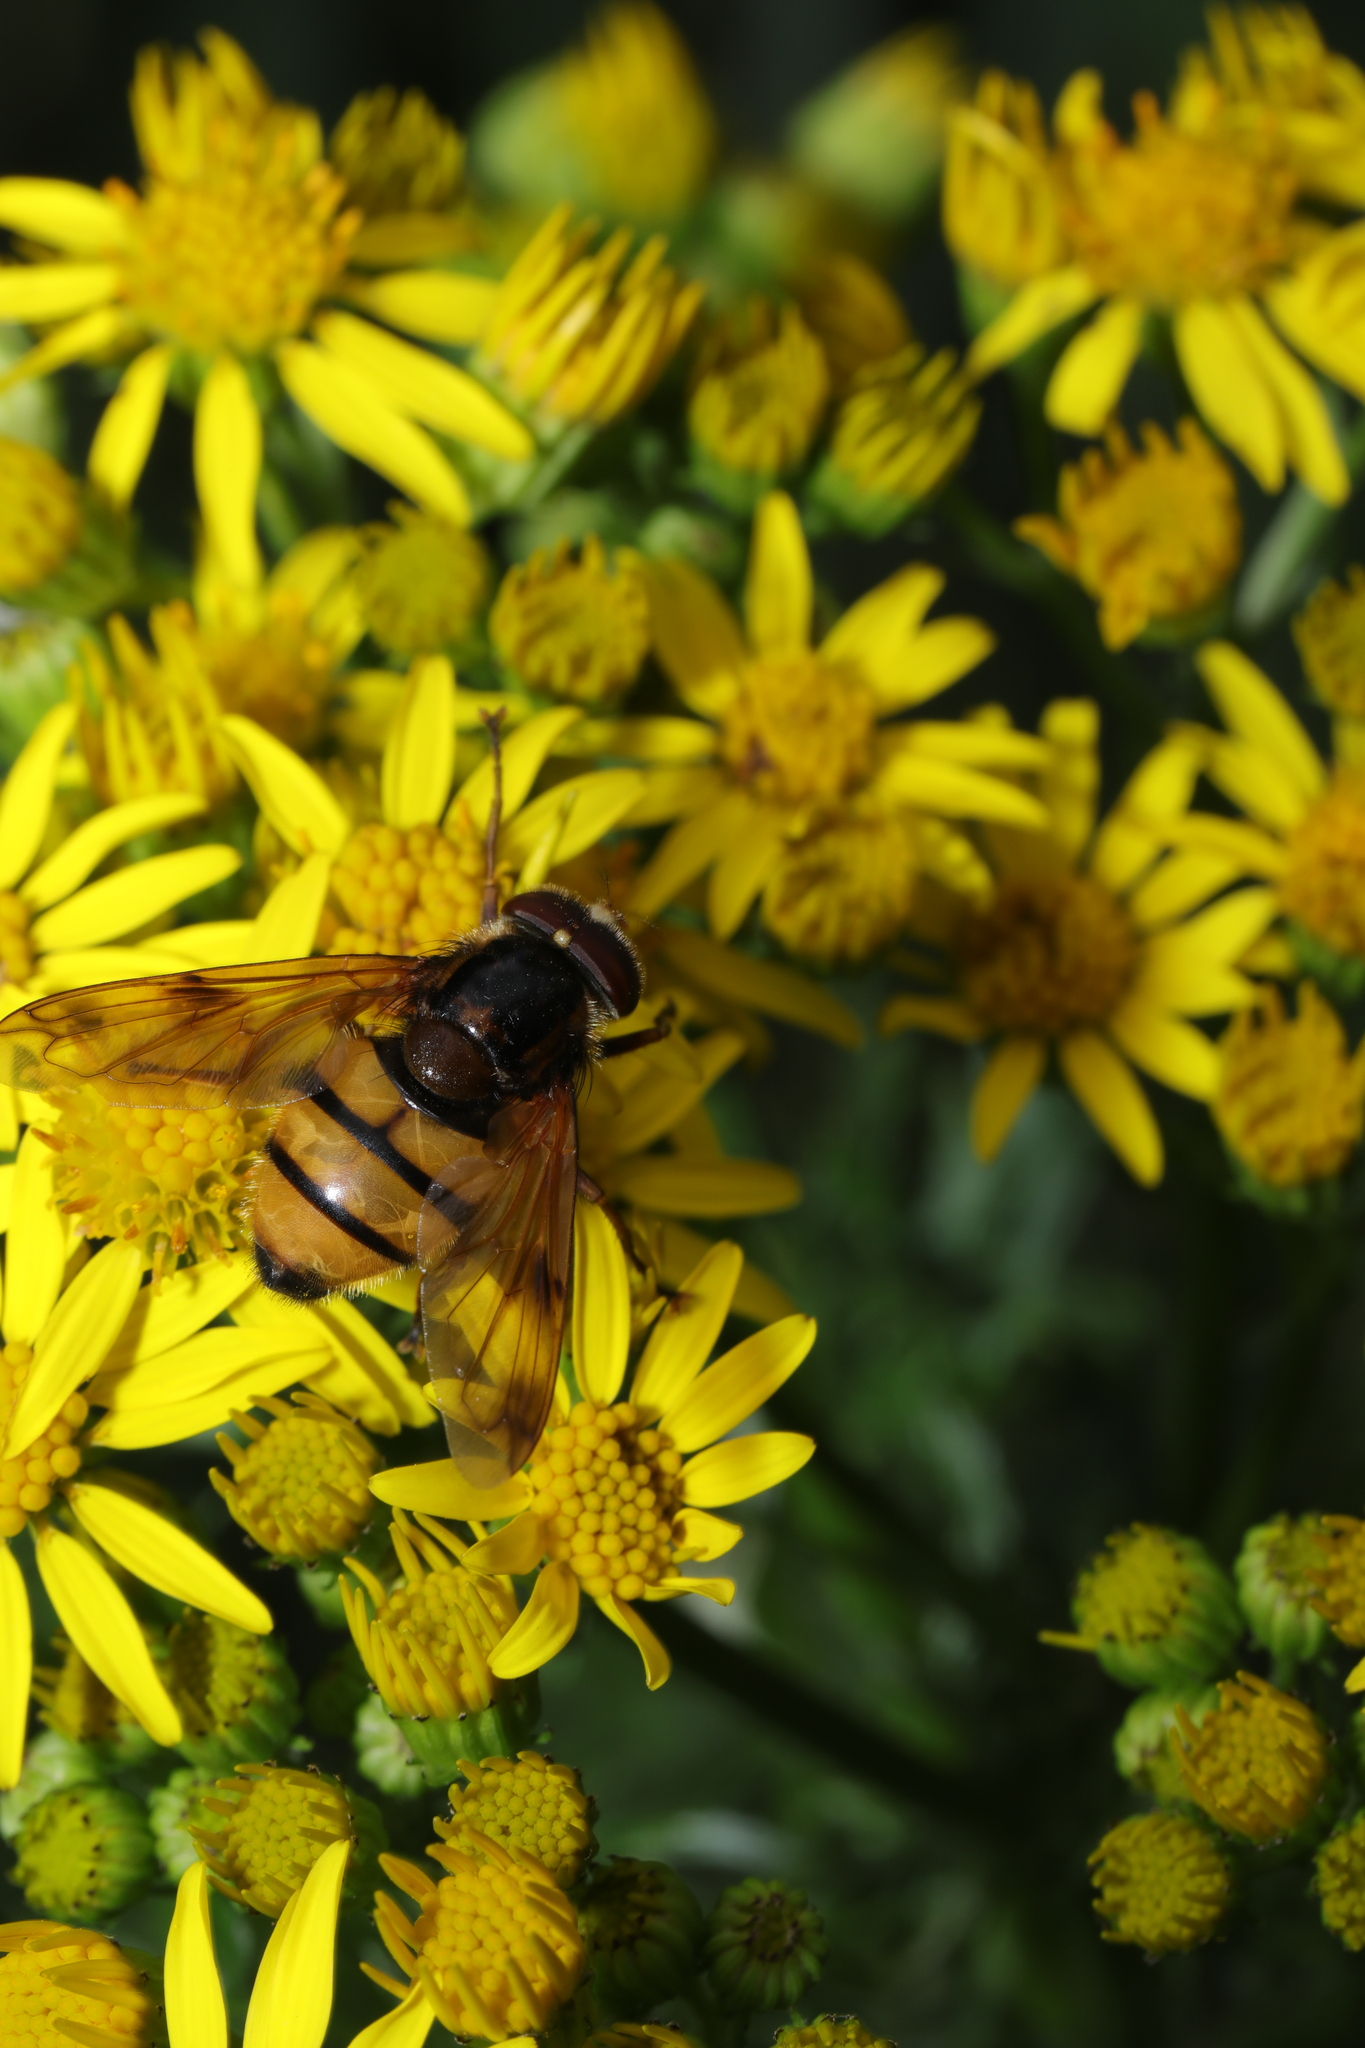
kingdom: Animalia
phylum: Arthropoda
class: Insecta
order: Diptera
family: Syrphidae
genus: Volucella
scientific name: Volucella inanis
